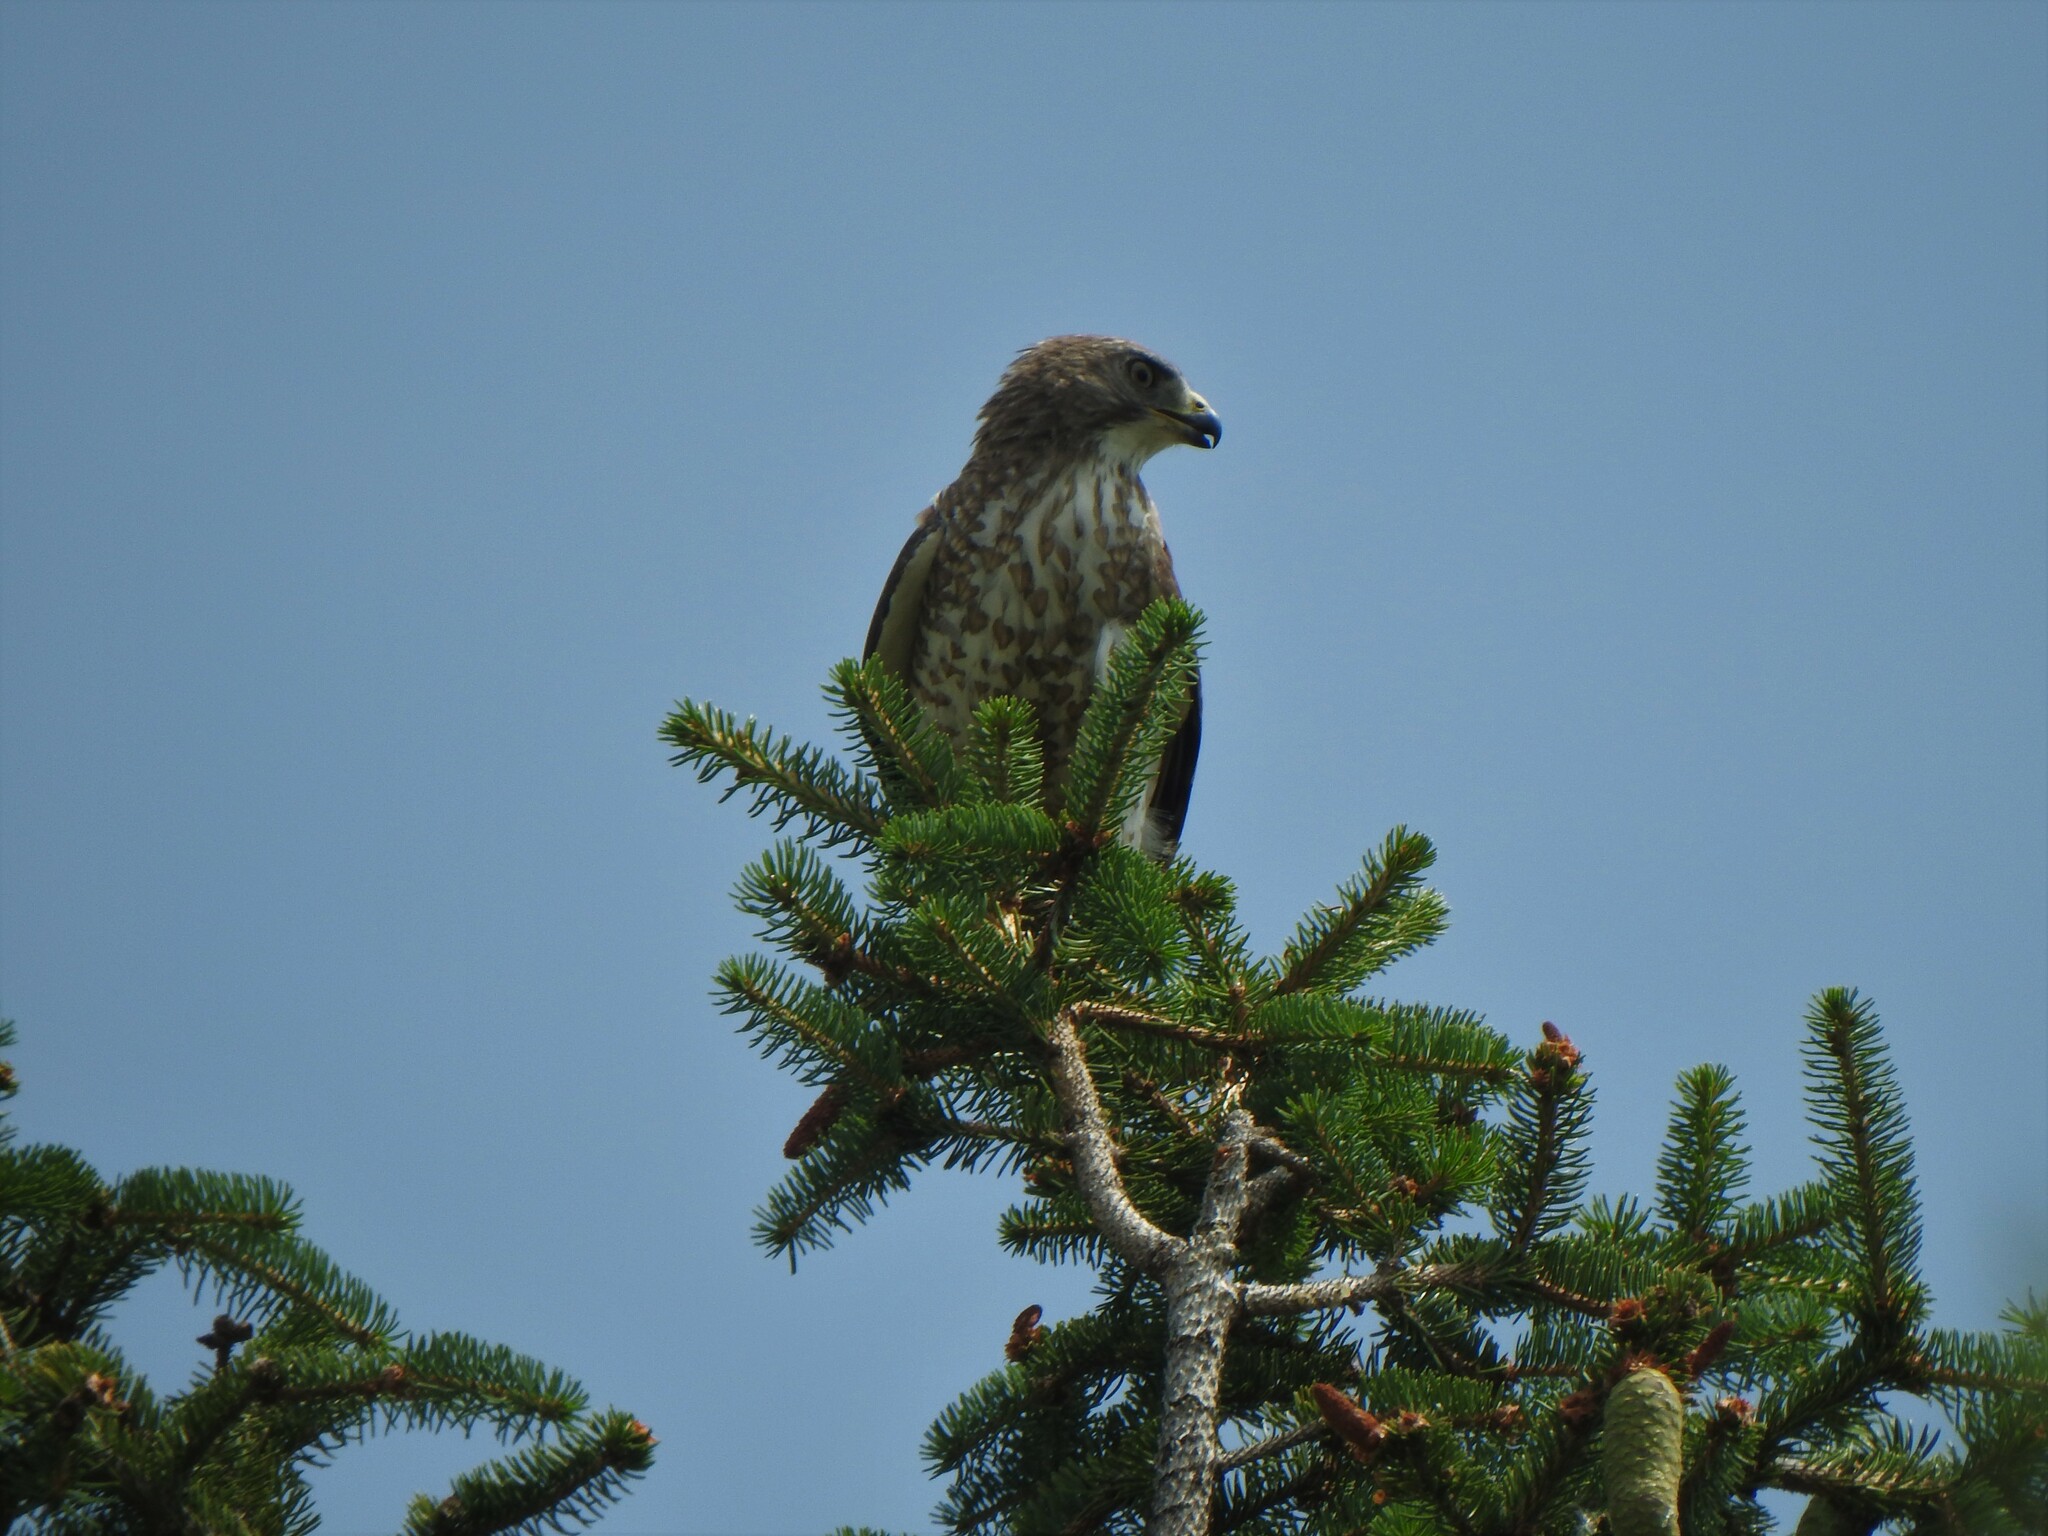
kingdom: Animalia
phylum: Chordata
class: Aves
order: Accipitriformes
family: Accipitridae
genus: Buteo
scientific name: Buteo platypterus
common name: Broad-winged hawk
